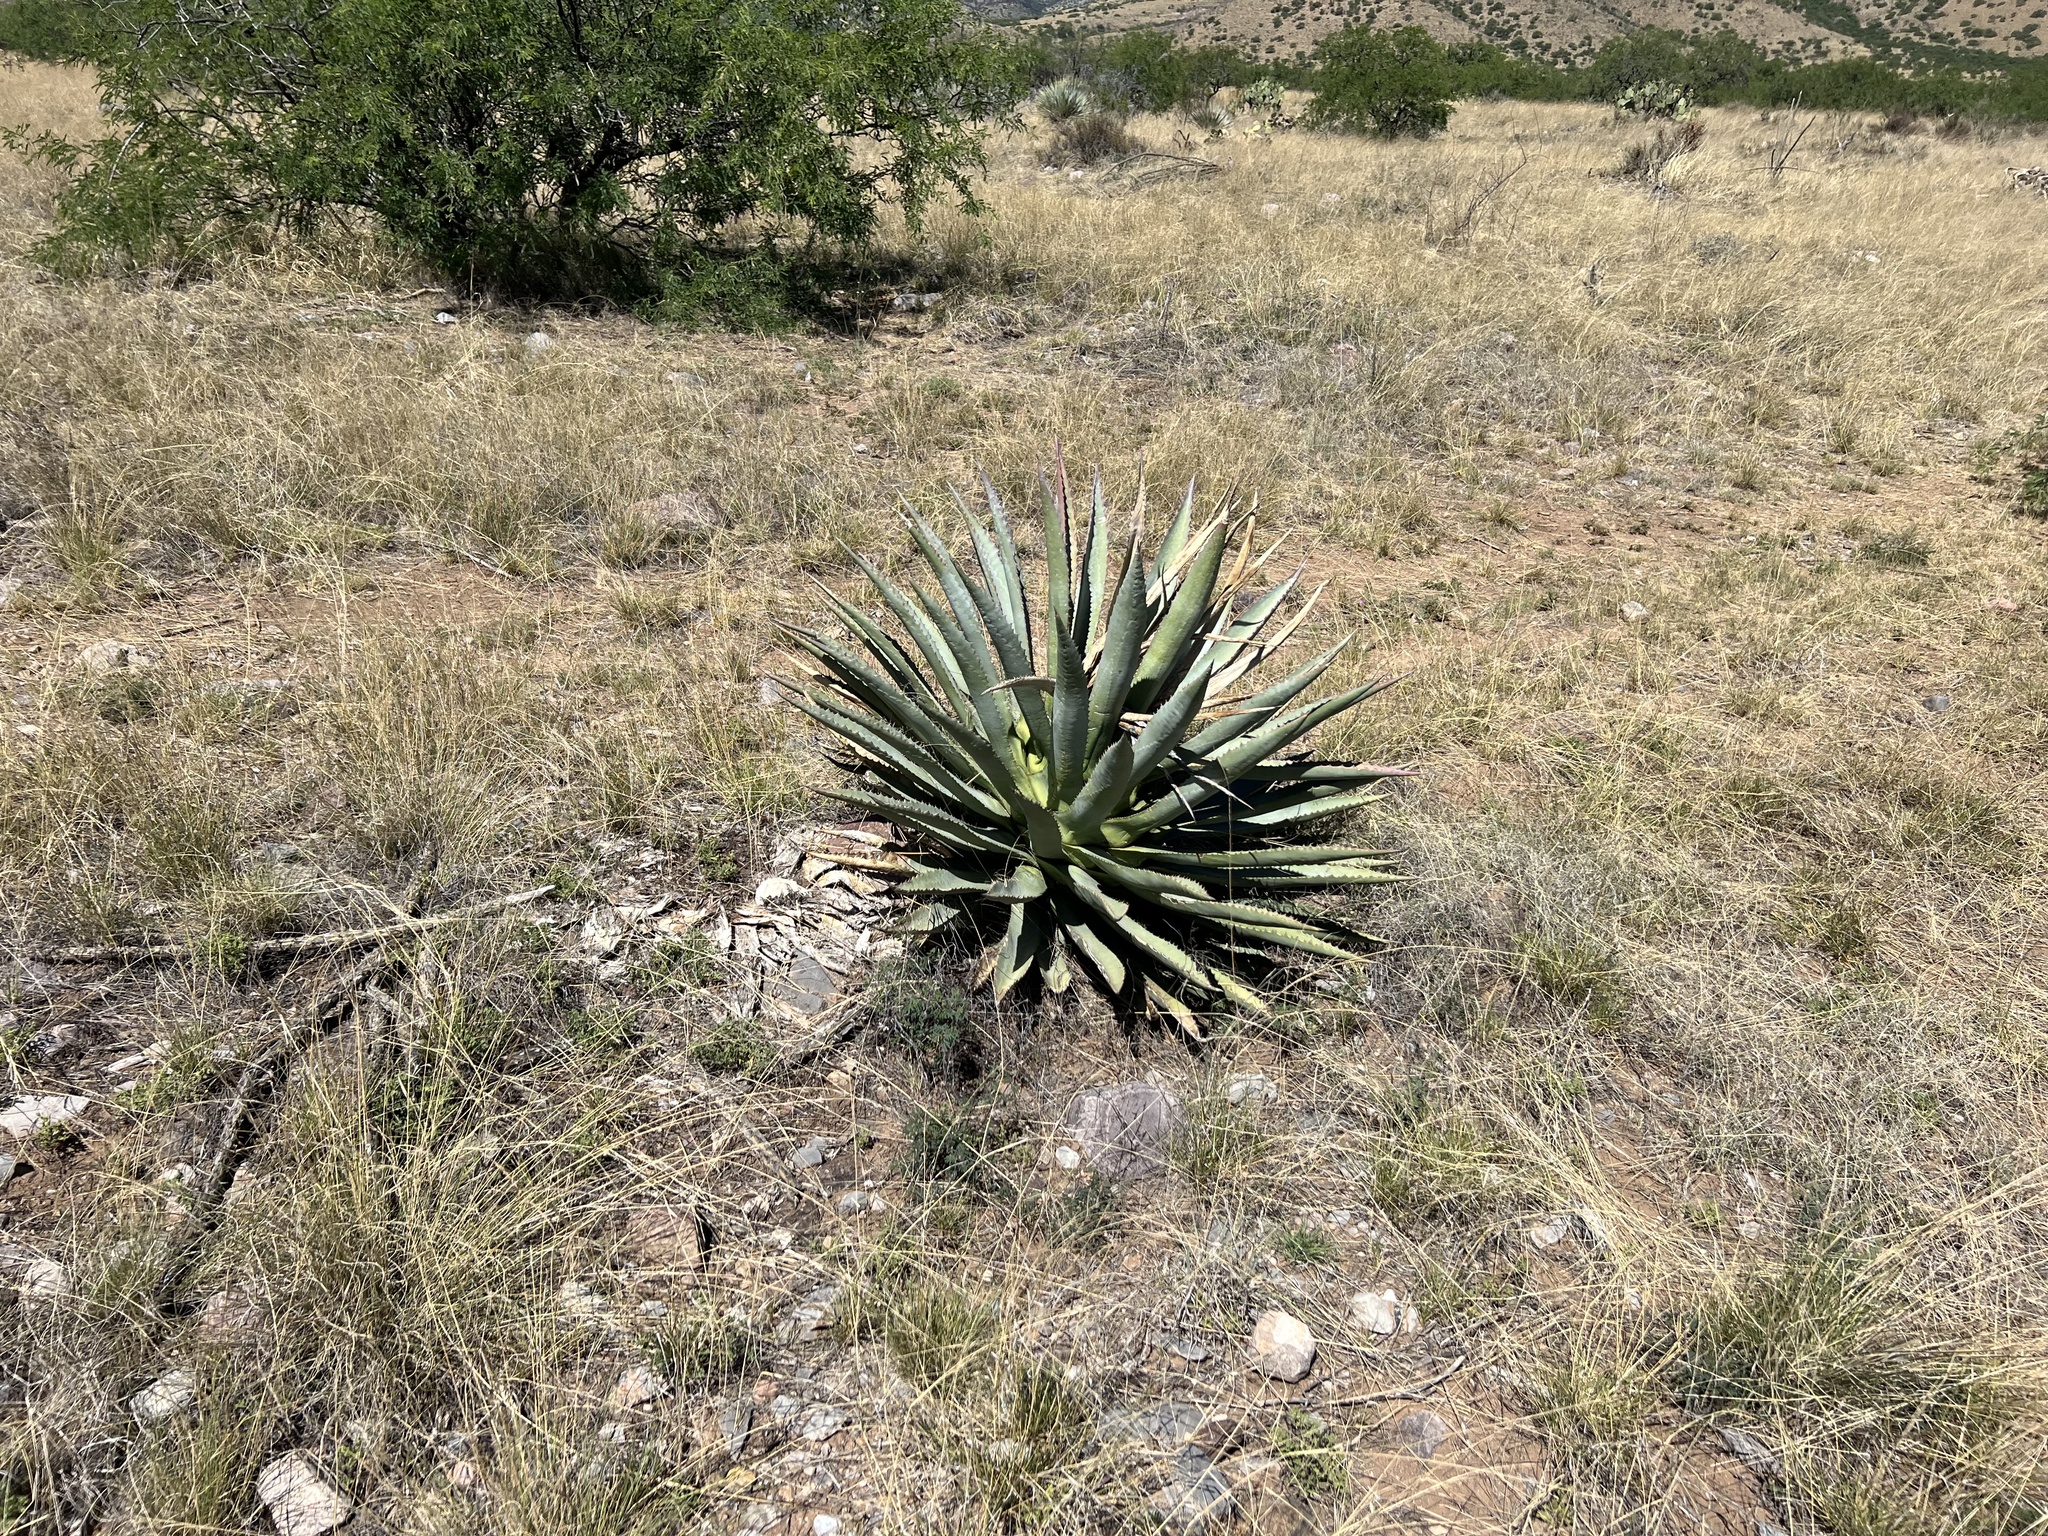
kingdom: Plantae
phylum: Tracheophyta
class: Liliopsida
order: Asparagales
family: Asparagaceae
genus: Agave
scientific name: Agave palmeri
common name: Palmer agave
